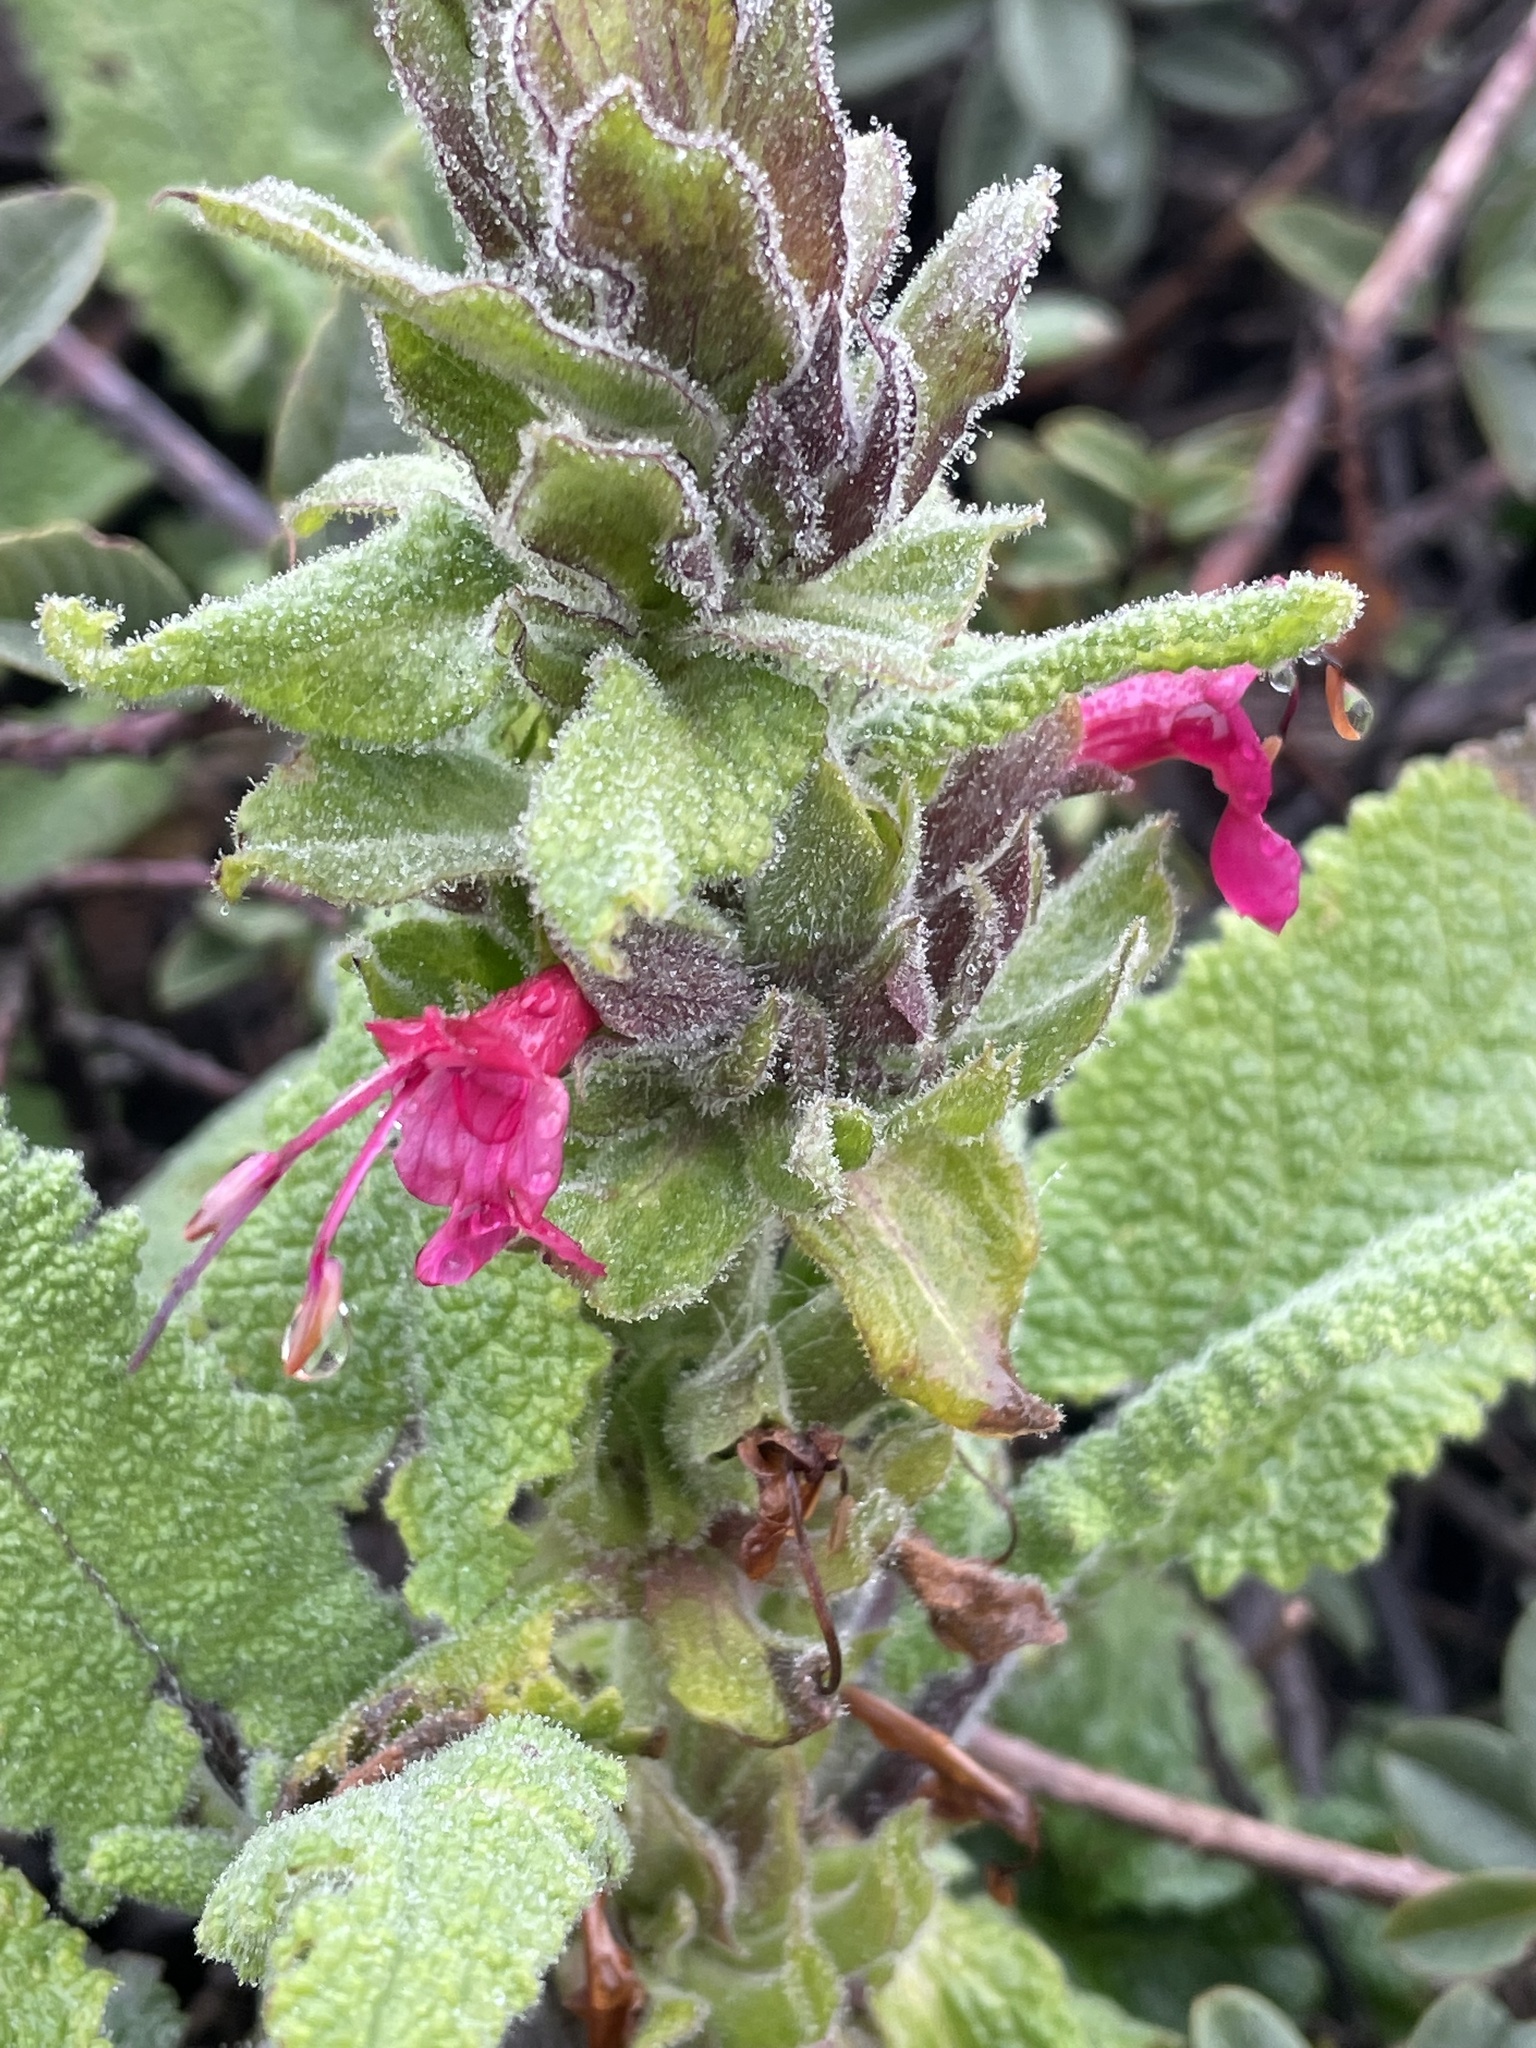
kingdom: Plantae
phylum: Tracheophyta
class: Magnoliopsida
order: Lamiales
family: Lamiaceae
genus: Salvia
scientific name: Salvia spathacea
